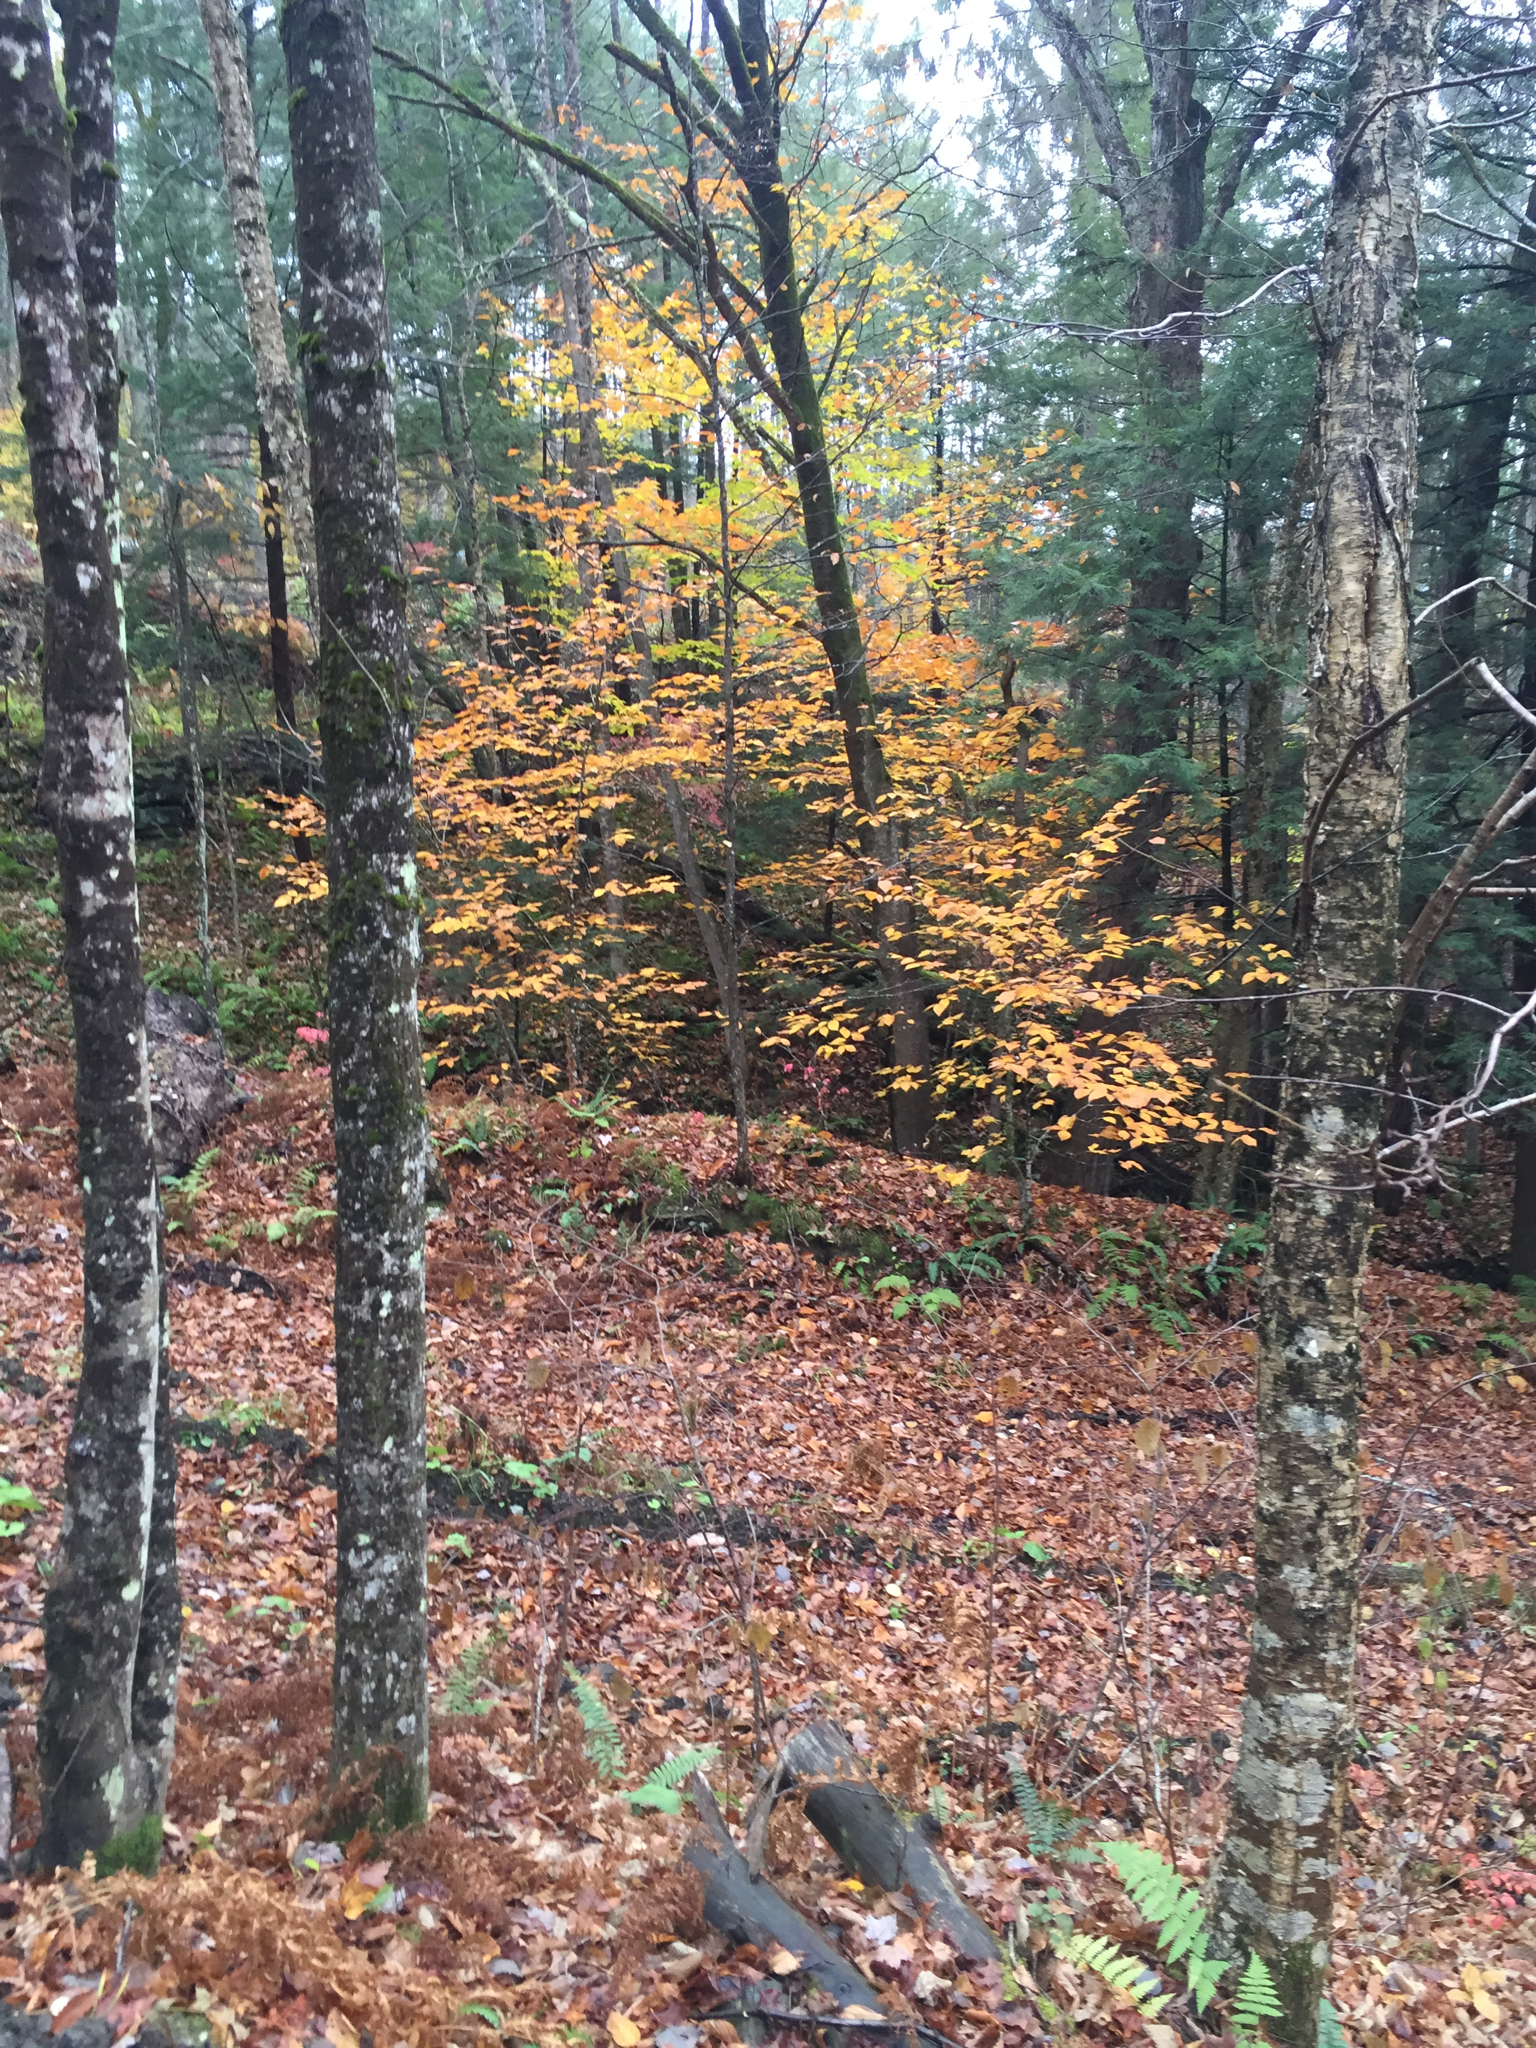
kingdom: Plantae
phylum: Tracheophyta
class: Magnoliopsida
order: Fagales
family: Fagaceae
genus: Fagus
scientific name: Fagus grandifolia
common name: American beech
